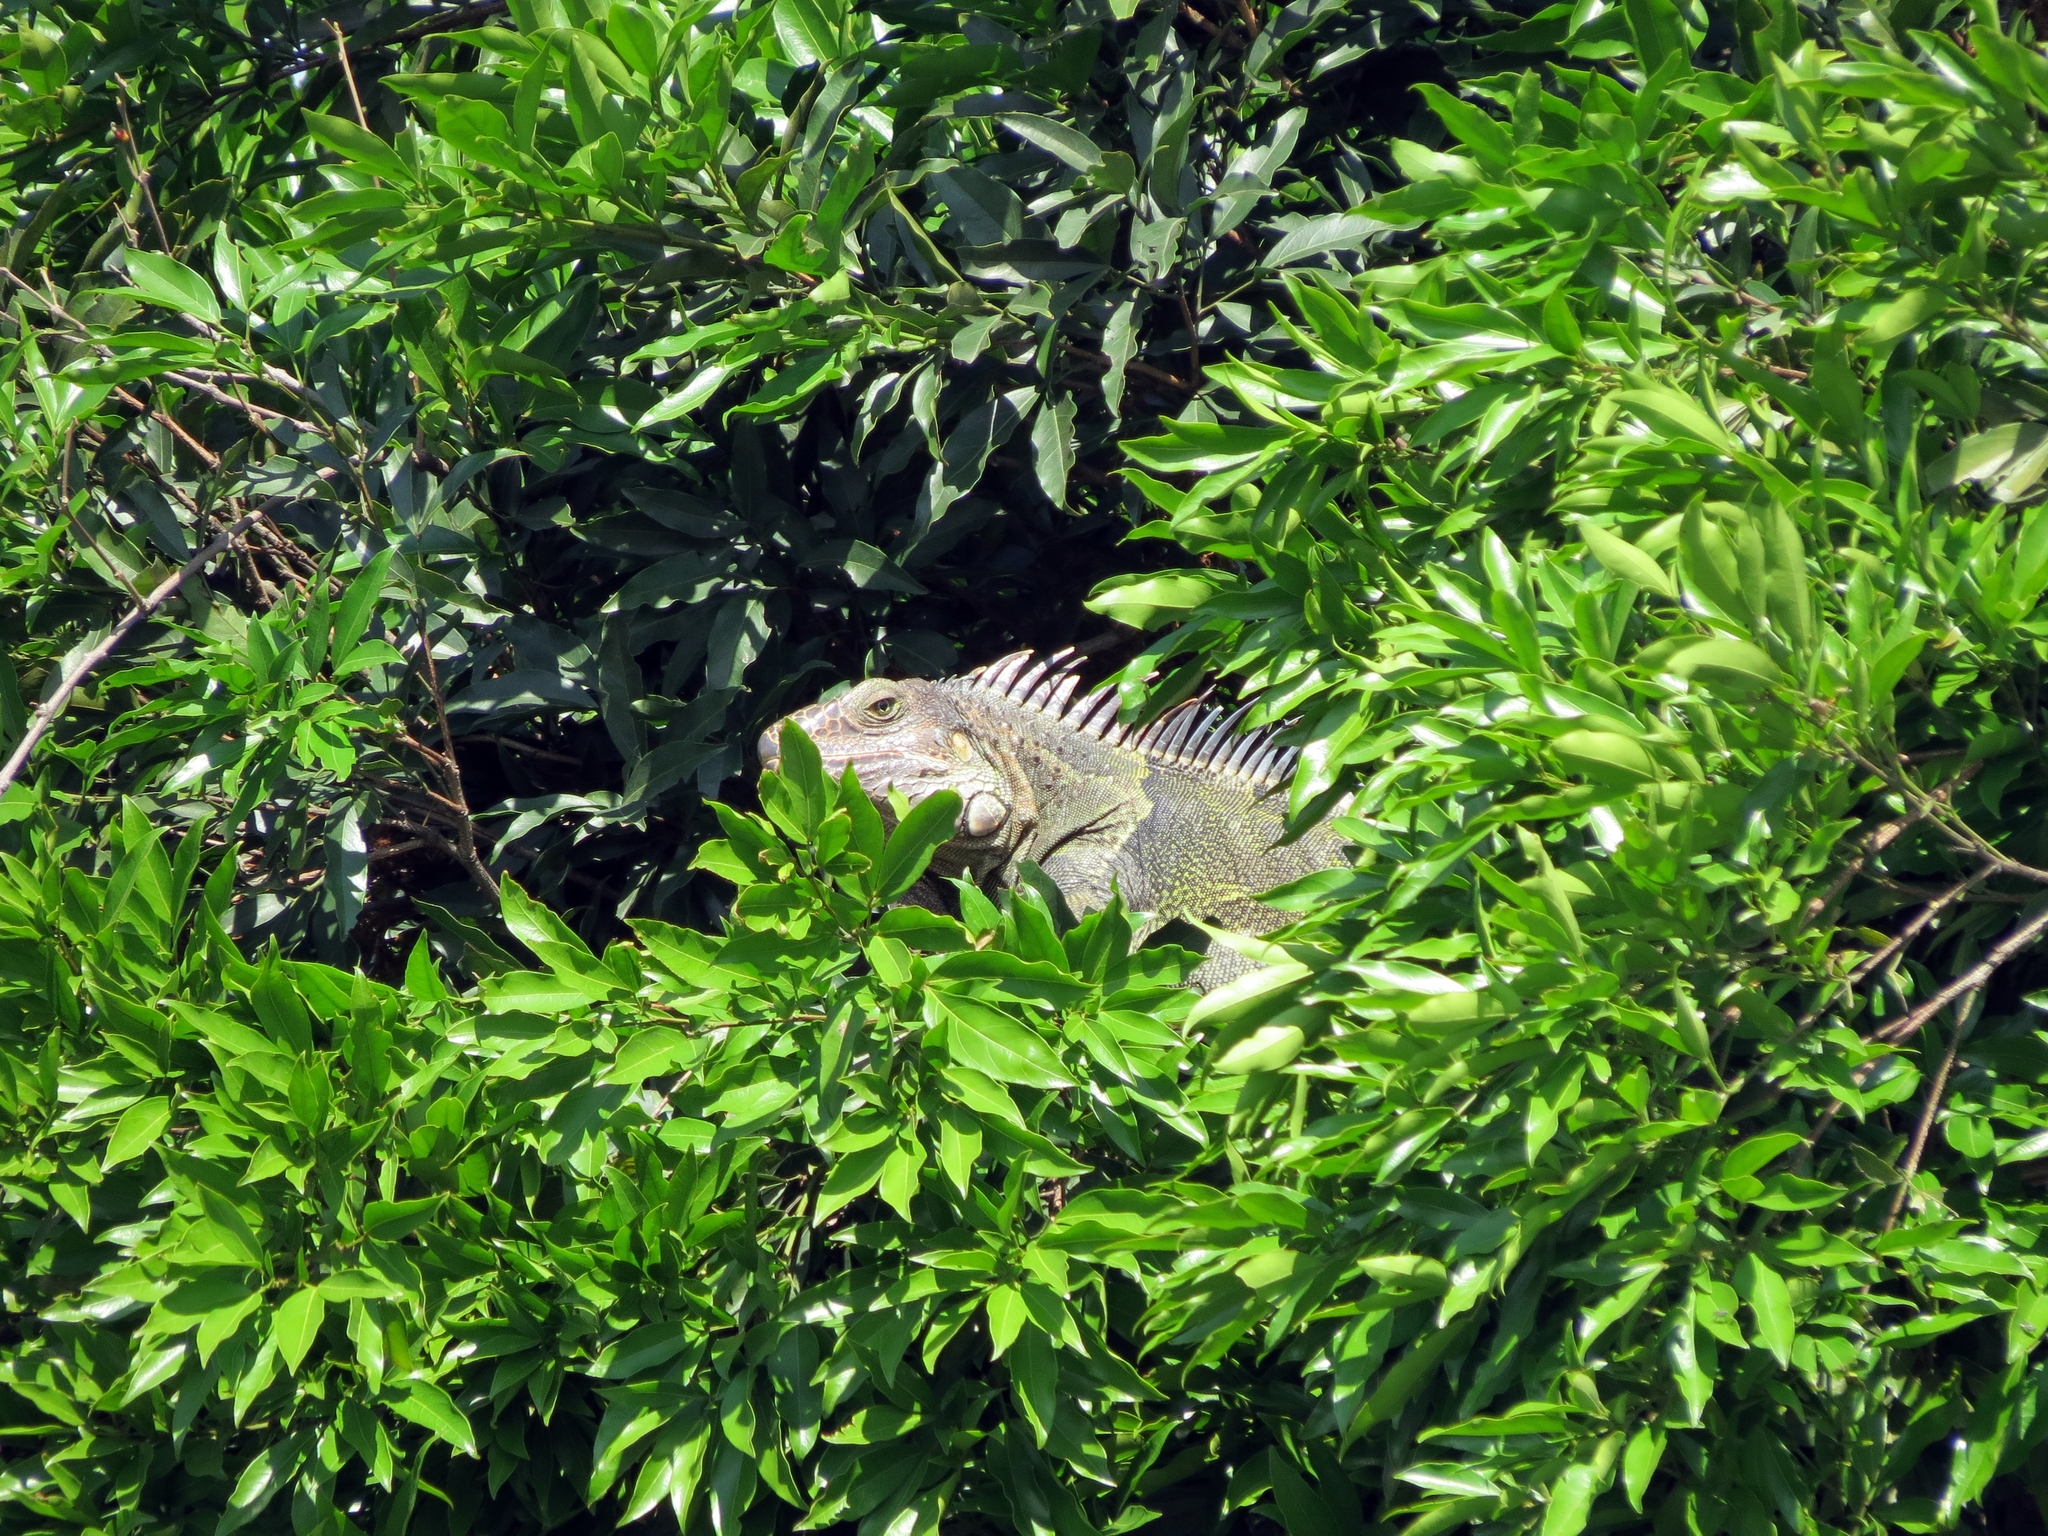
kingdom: Animalia
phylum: Chordata
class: Squamata
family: Iguanidae
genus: Iguana
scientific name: Iguana iguana
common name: Green iguana
